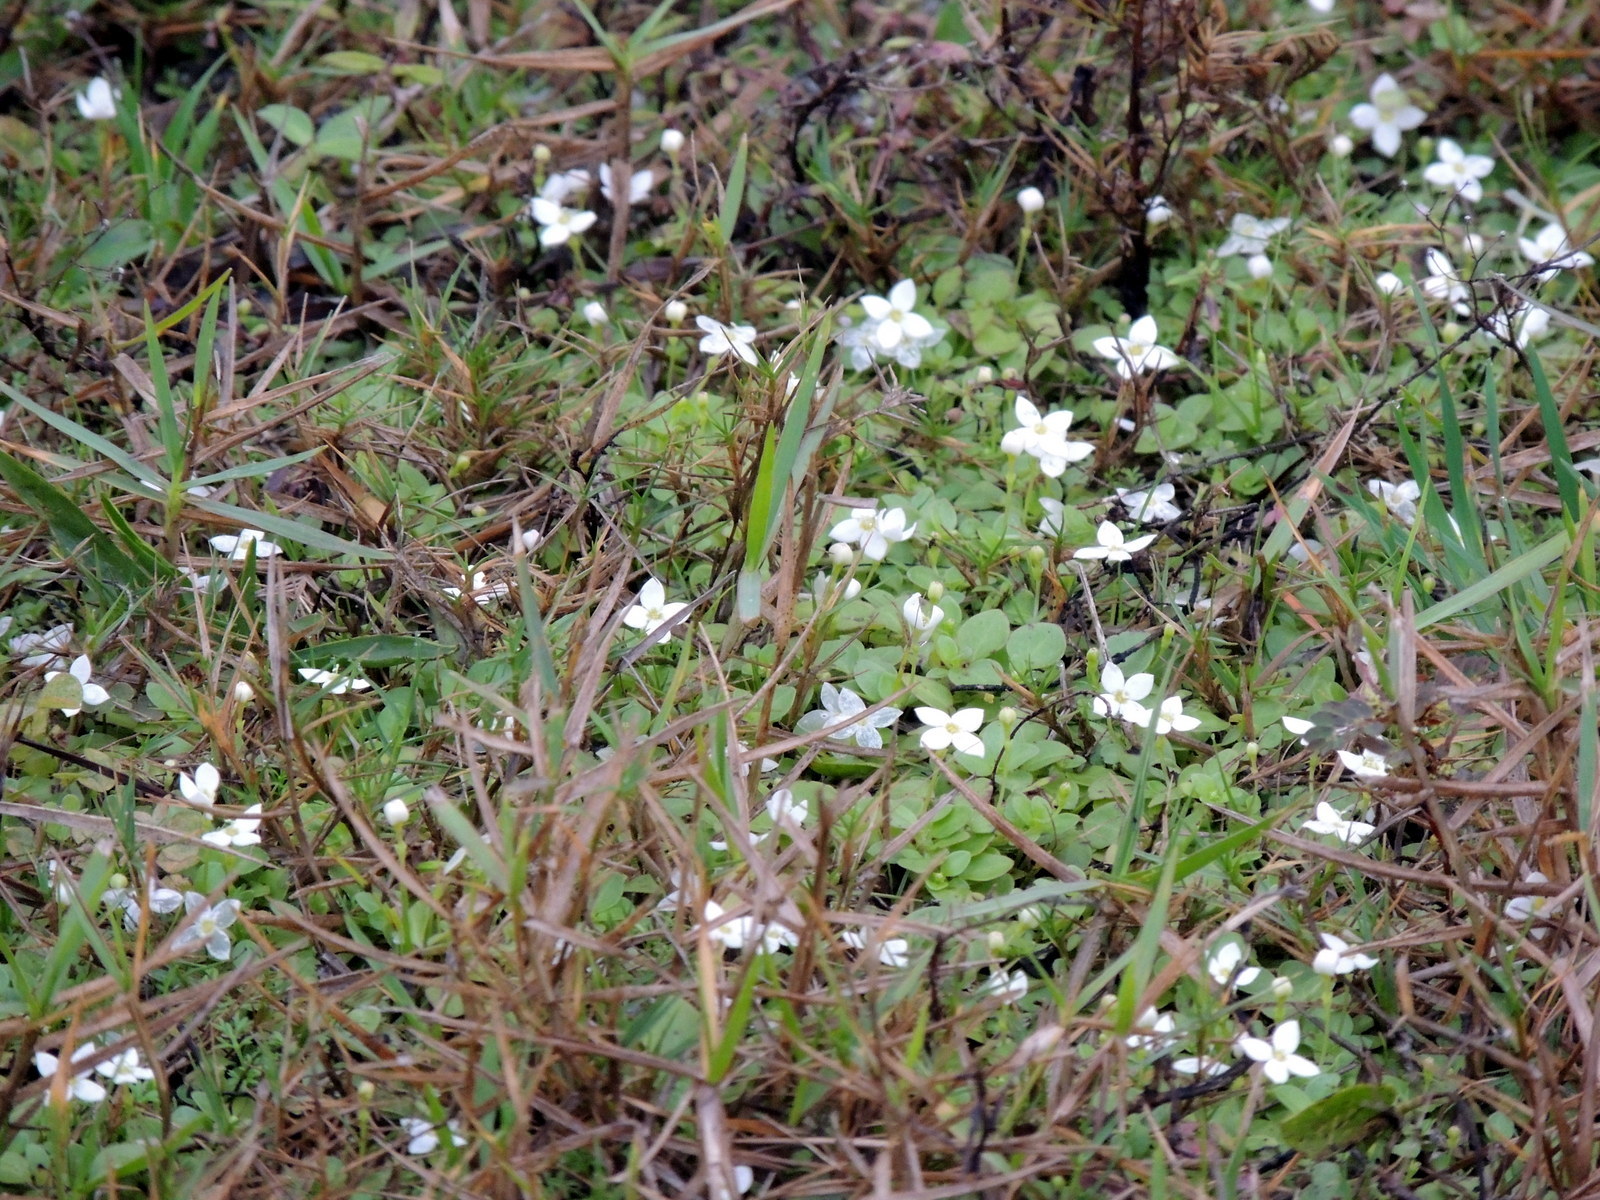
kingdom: Plantae
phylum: Tracheophyta
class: Magnoliopsida
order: Gentianales
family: Rubiaceae
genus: Houstonia
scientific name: Houstonia procumbens
